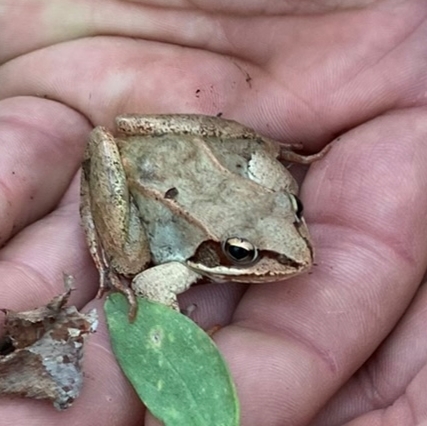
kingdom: Animalia
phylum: Chordata
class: Amphibia
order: Anura
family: Ranidae
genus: Lithobates
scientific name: Lithobates sylvaticus
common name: Wood frog
